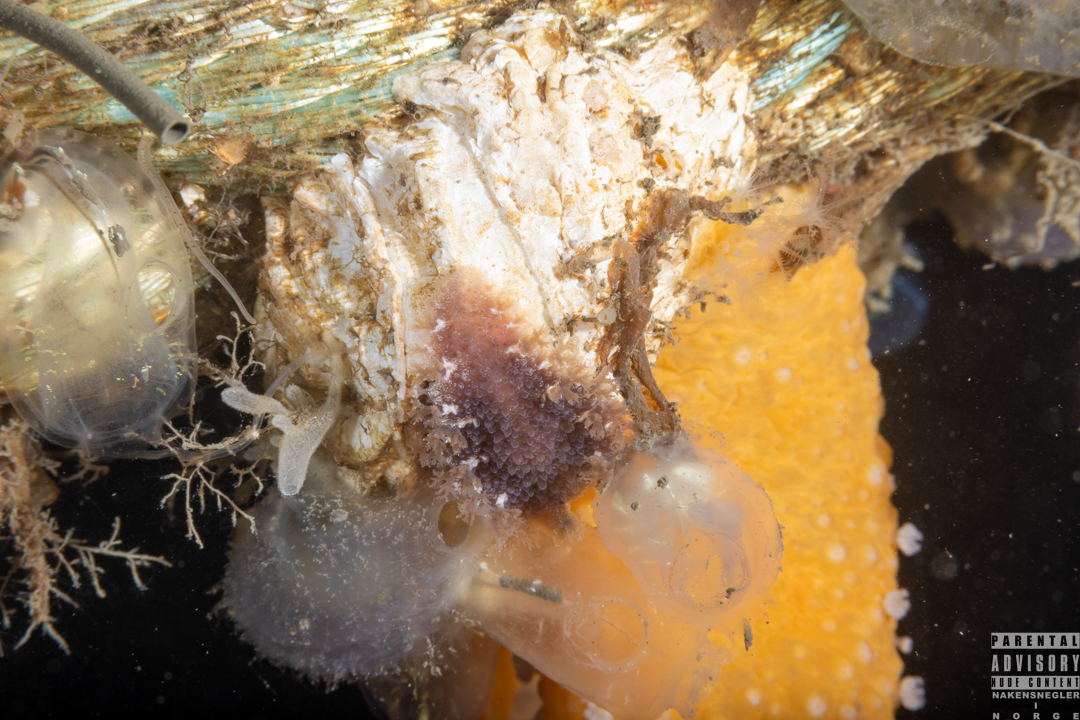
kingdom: Animalia
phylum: Mollusca
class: Gastropoda
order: Nudibranchia
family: Tritoniidae
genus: Tritonia
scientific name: Tritonia hombergii
